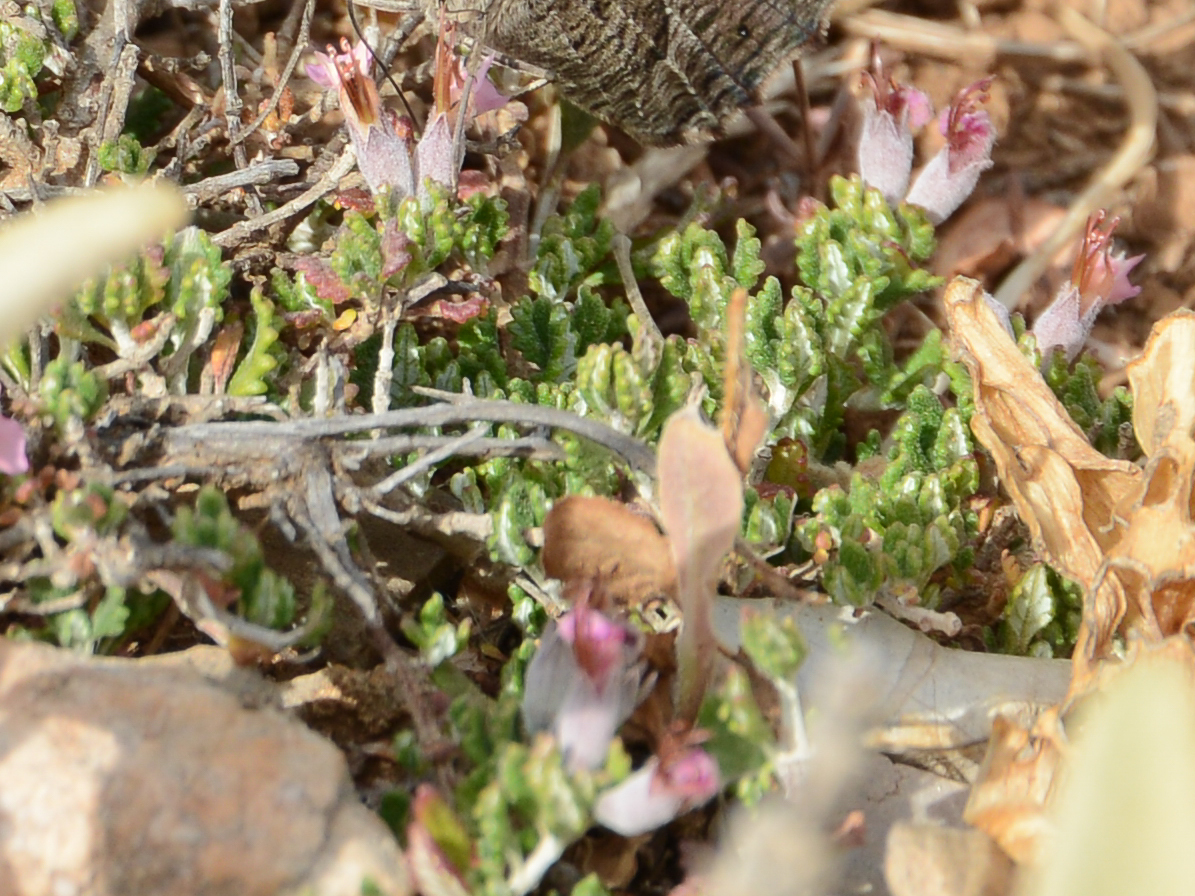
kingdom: Plantae
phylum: Tracheophyta
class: Magnoliopsida
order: Lamiales
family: Lamiaceae
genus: Teucrium
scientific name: Teucrium microphyllum
